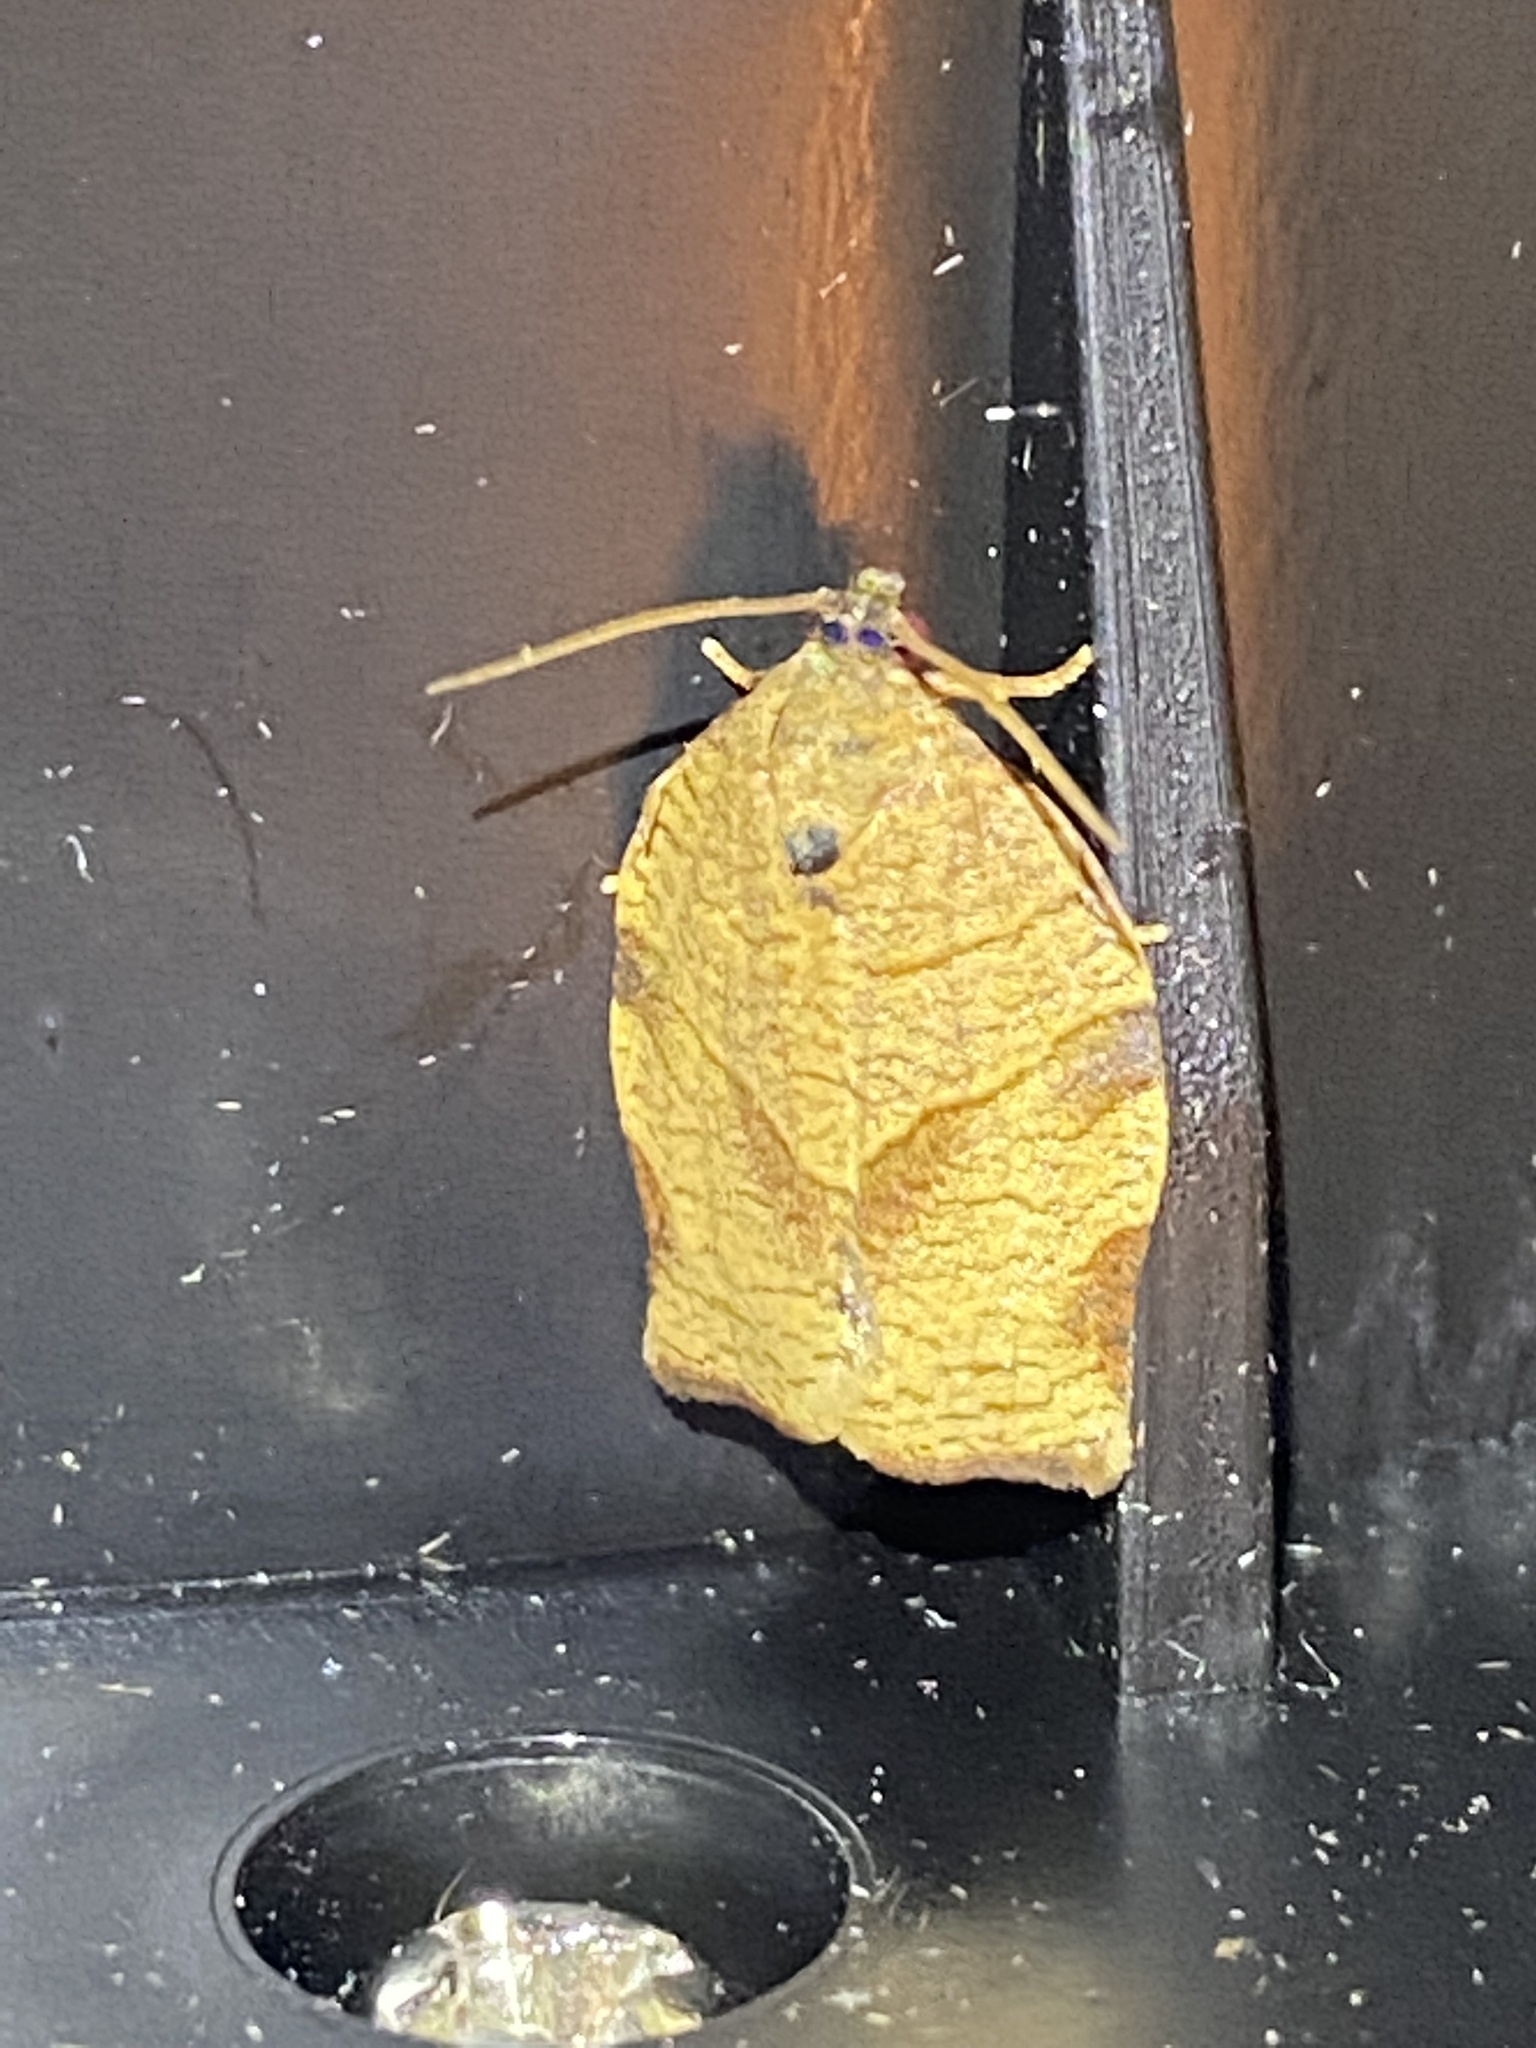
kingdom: Animalia
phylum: Arthropoda
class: Insecta
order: Lepidoptera
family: Tortricidae
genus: Choristoneura
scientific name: Choristoneura rosaceana
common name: Oblique-banded leafroller moth
